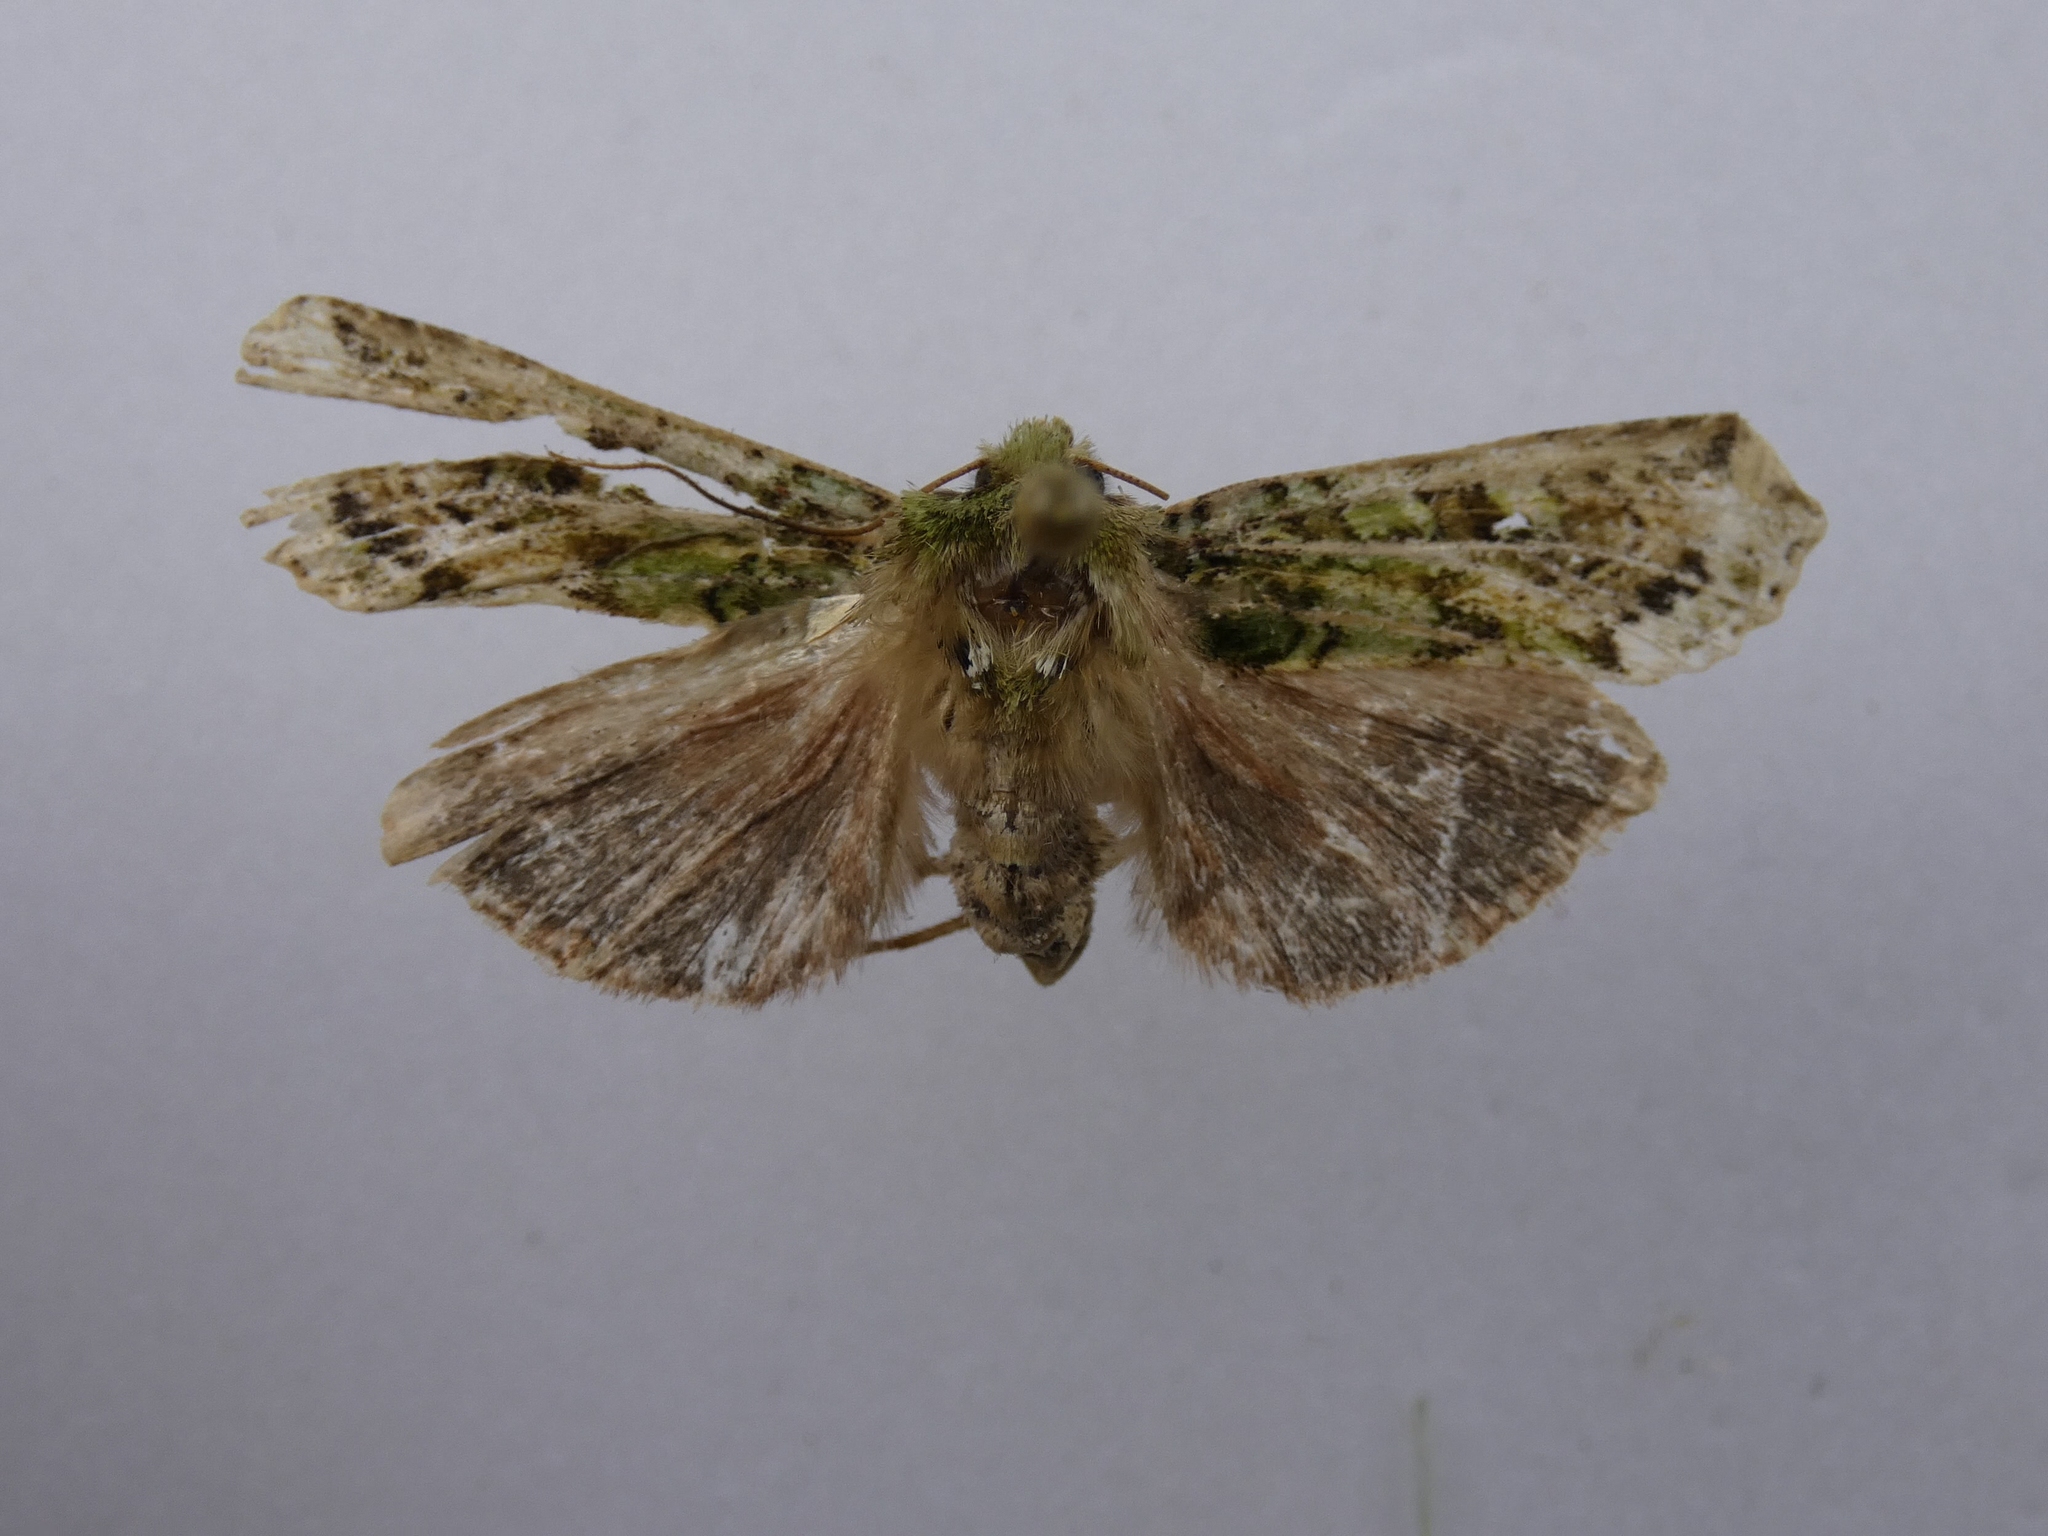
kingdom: Animalia
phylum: Arthropoda
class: Insecta
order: Lepidoptera
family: Noctuidae
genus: Feredayia
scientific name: Feredayia grammosa
